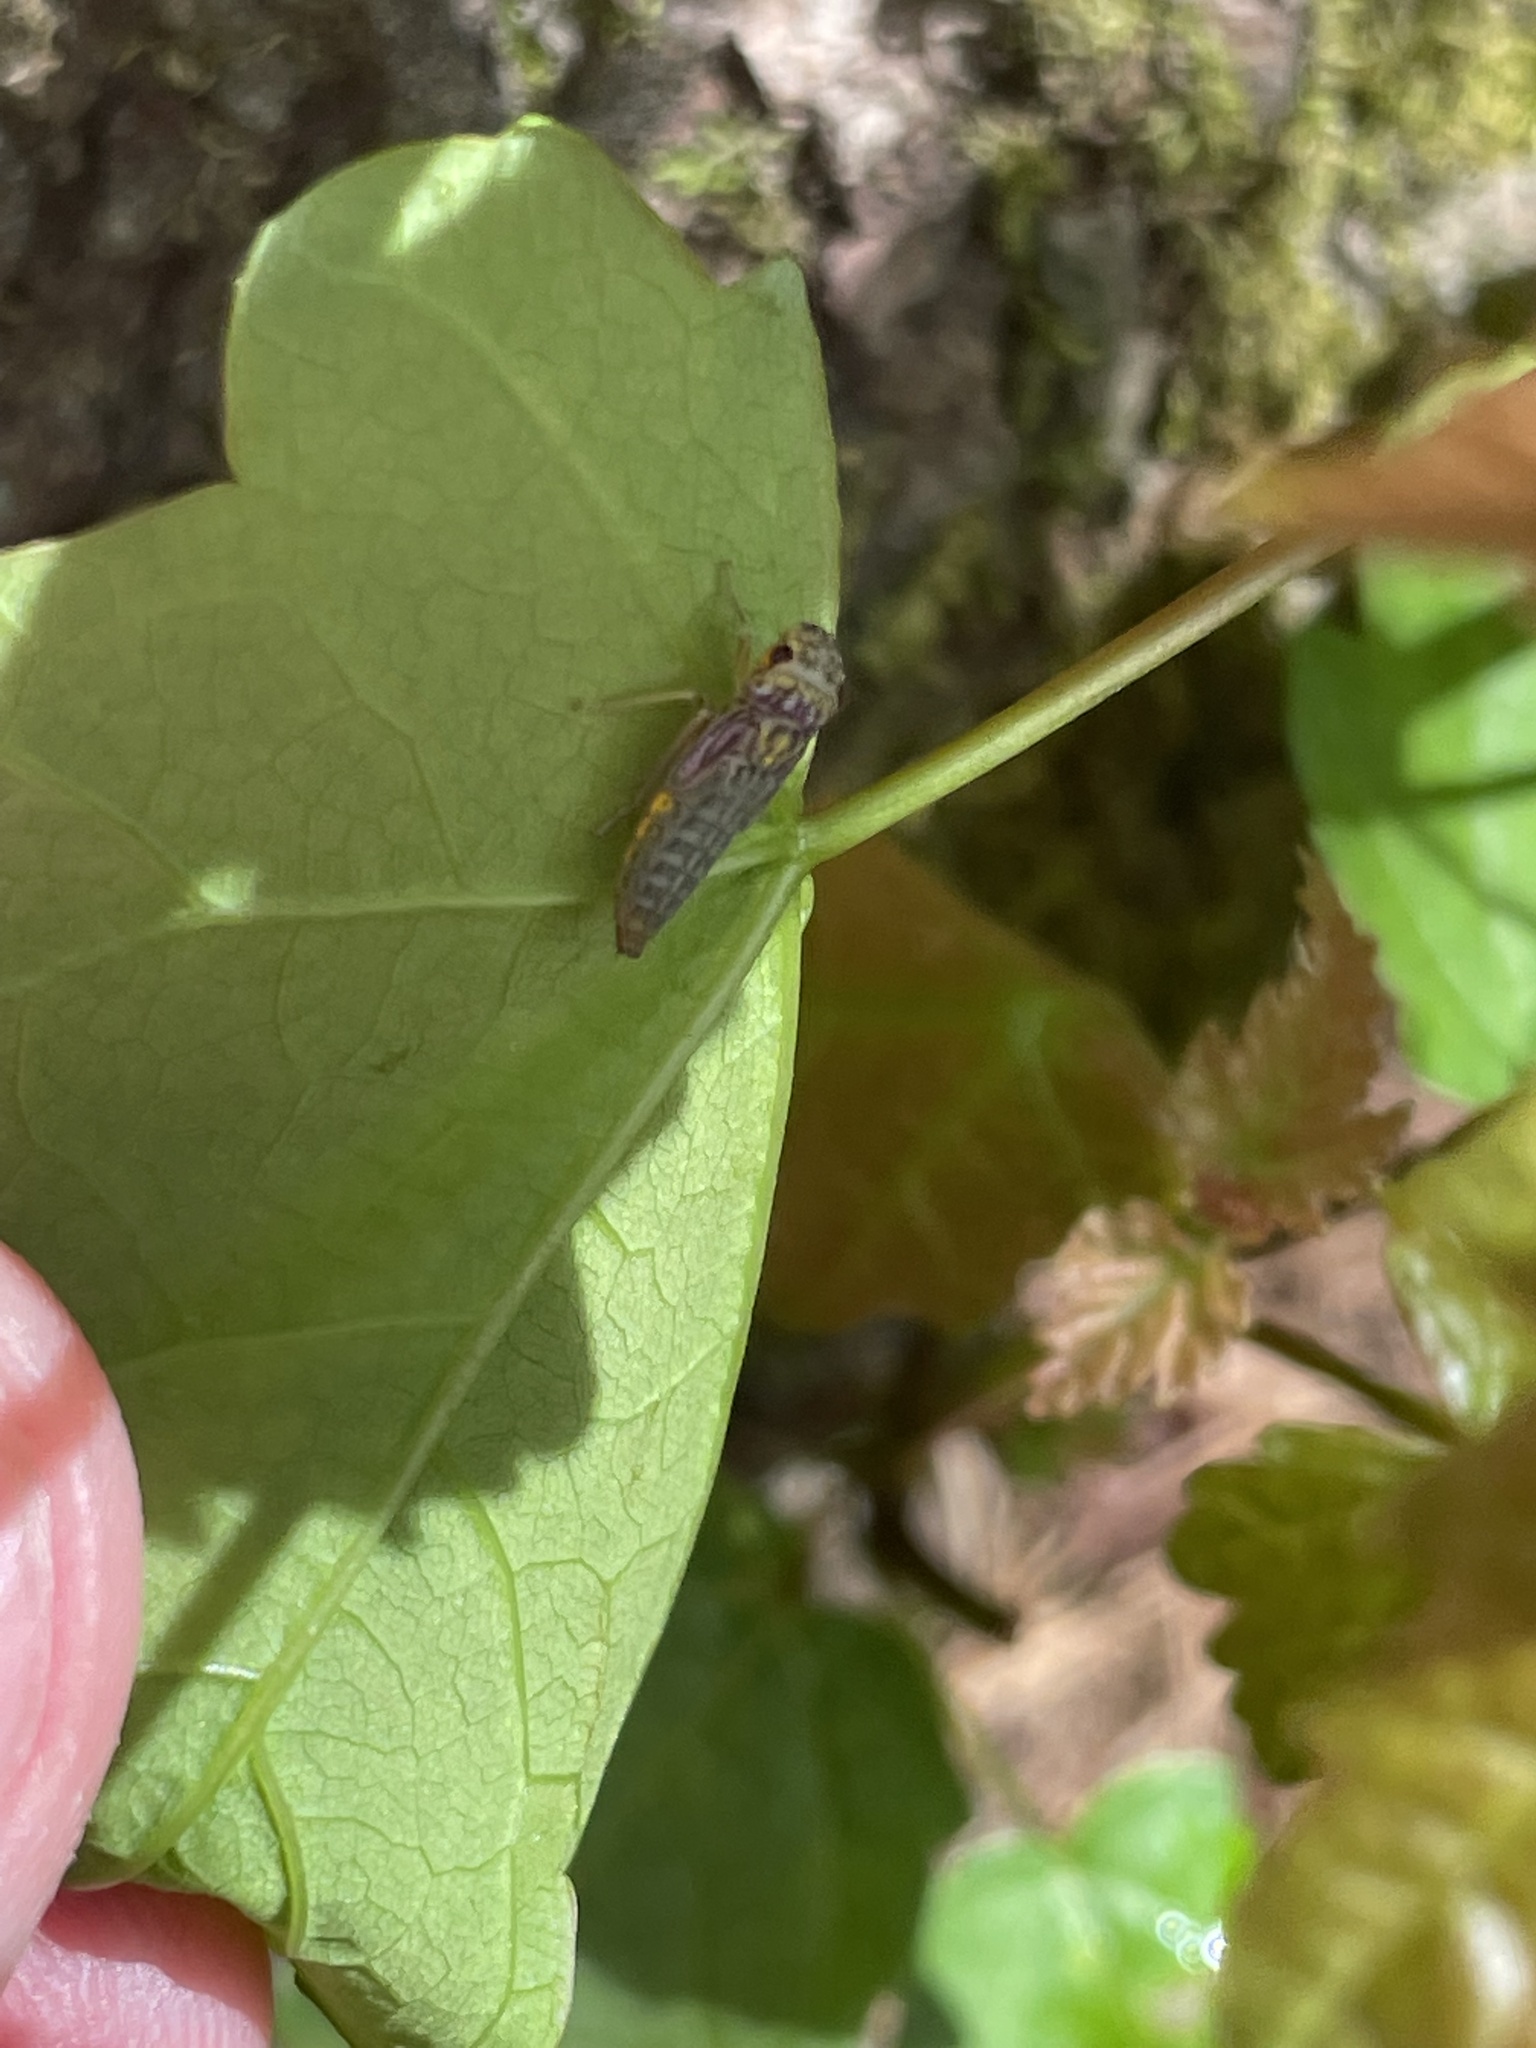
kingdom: Animalia
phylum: Arthropoda
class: Insecta
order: Hemiptera
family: Cicadellidae
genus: Oncometopia
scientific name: Oncometopia orbona
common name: Broad-headed sharpshooter
